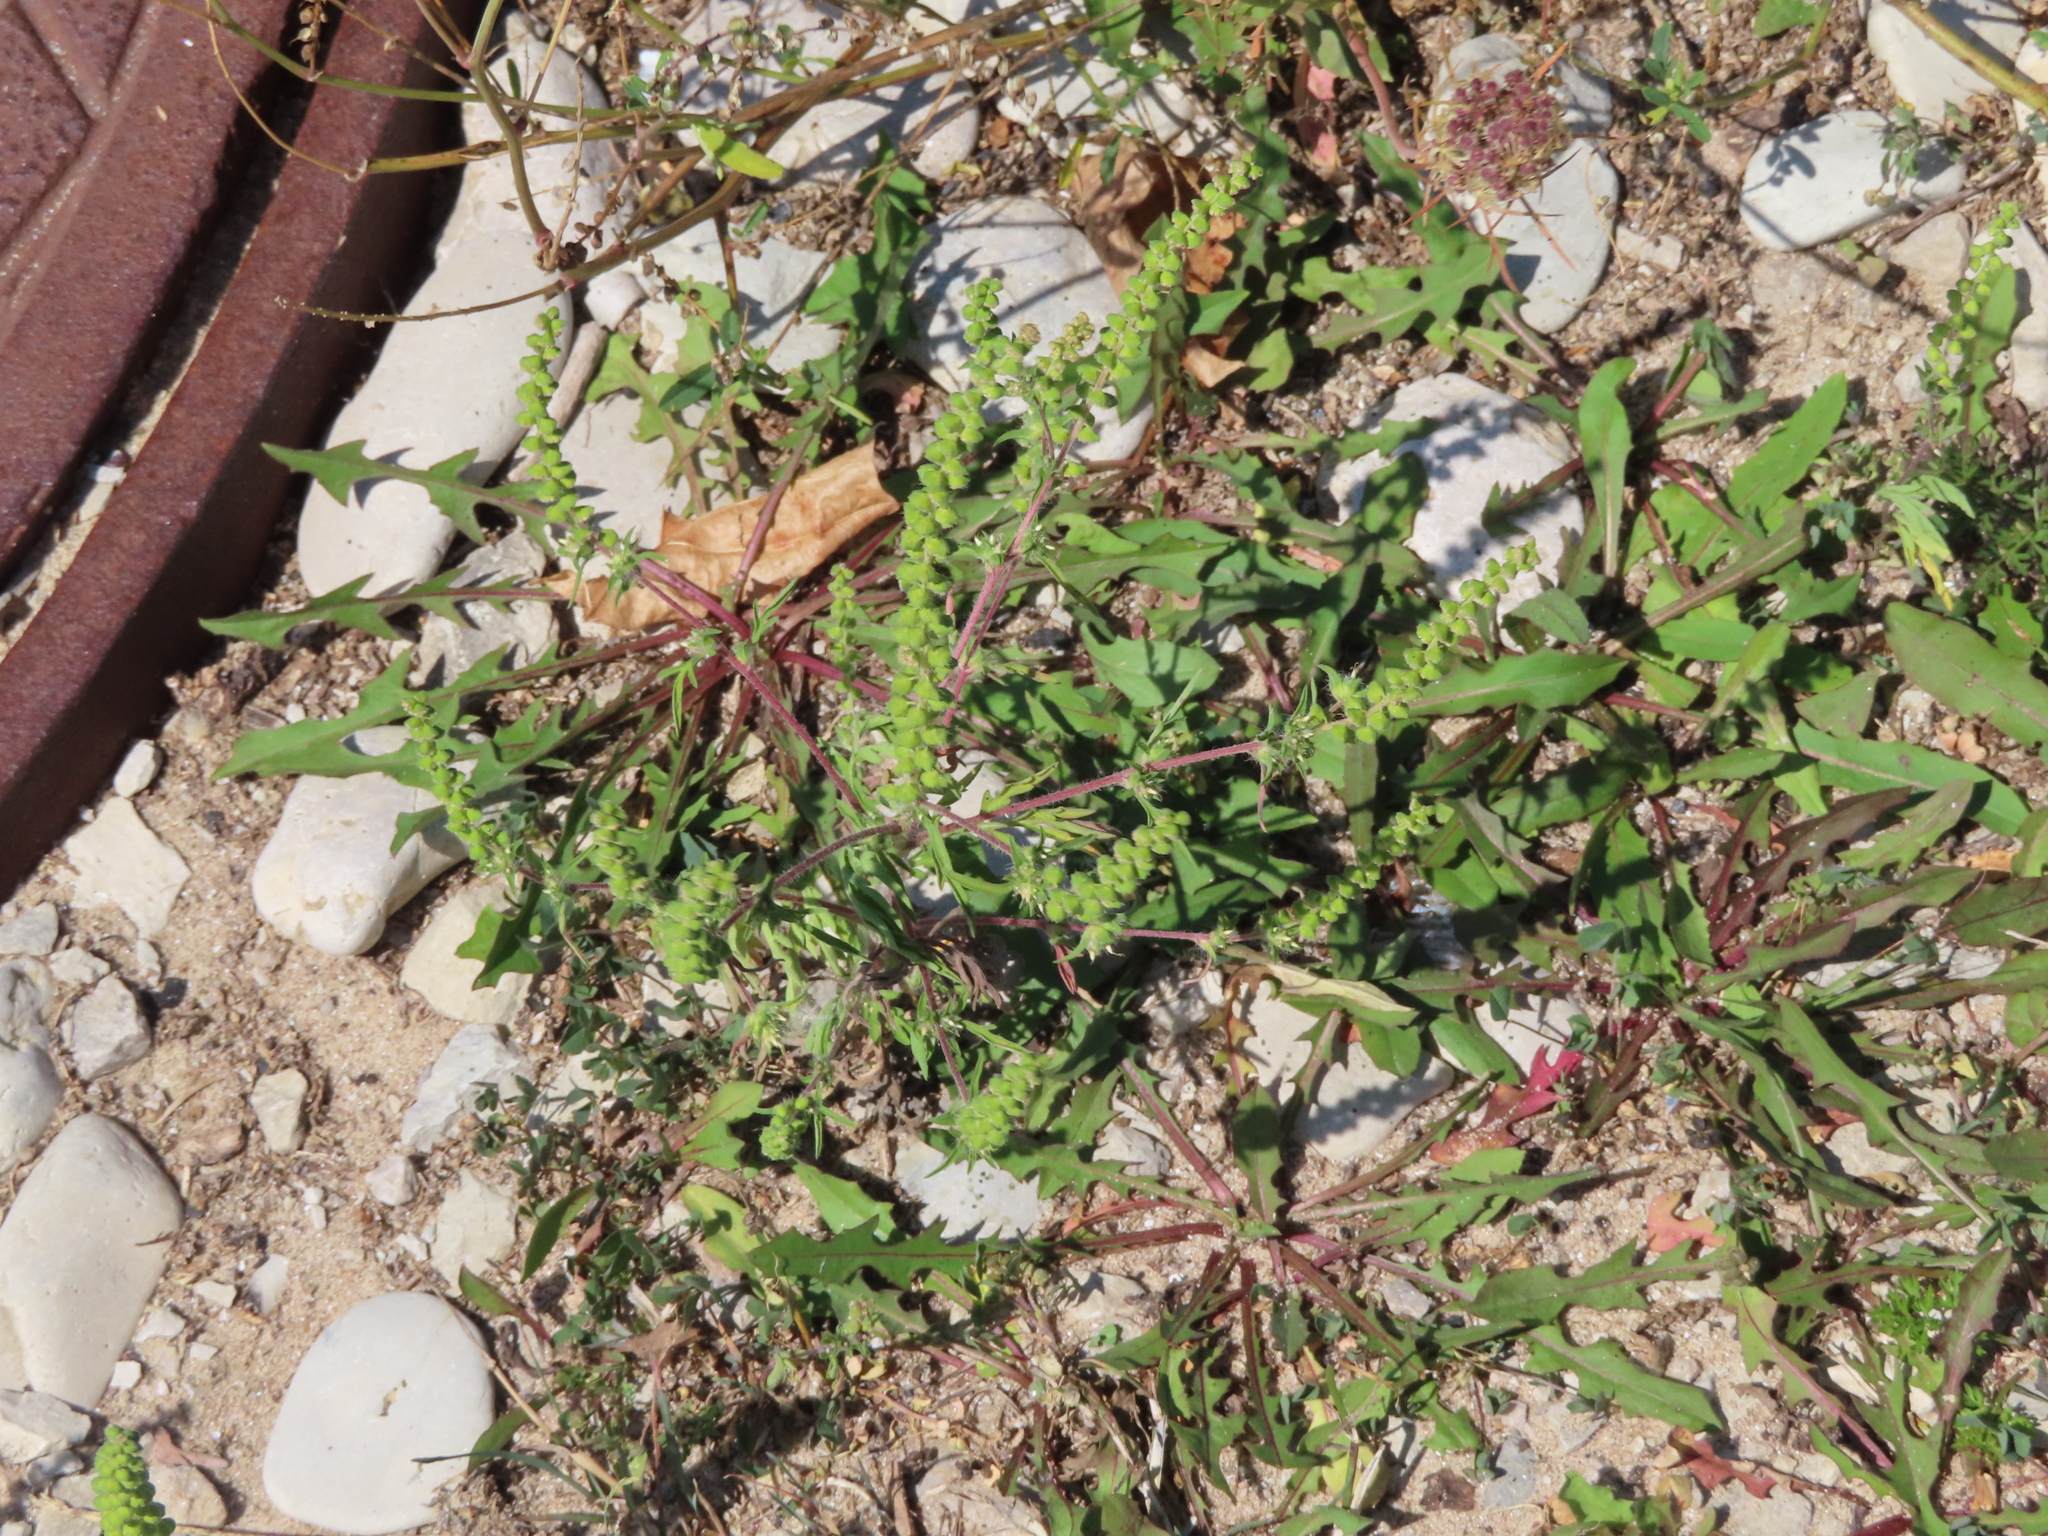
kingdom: Plantae
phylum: Tracheophyta
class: Magnoliopsida
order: Asterales
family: Asteraceae
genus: Ambrosia
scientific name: Ambrosia artemisiifolia
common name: Annual ragweed
